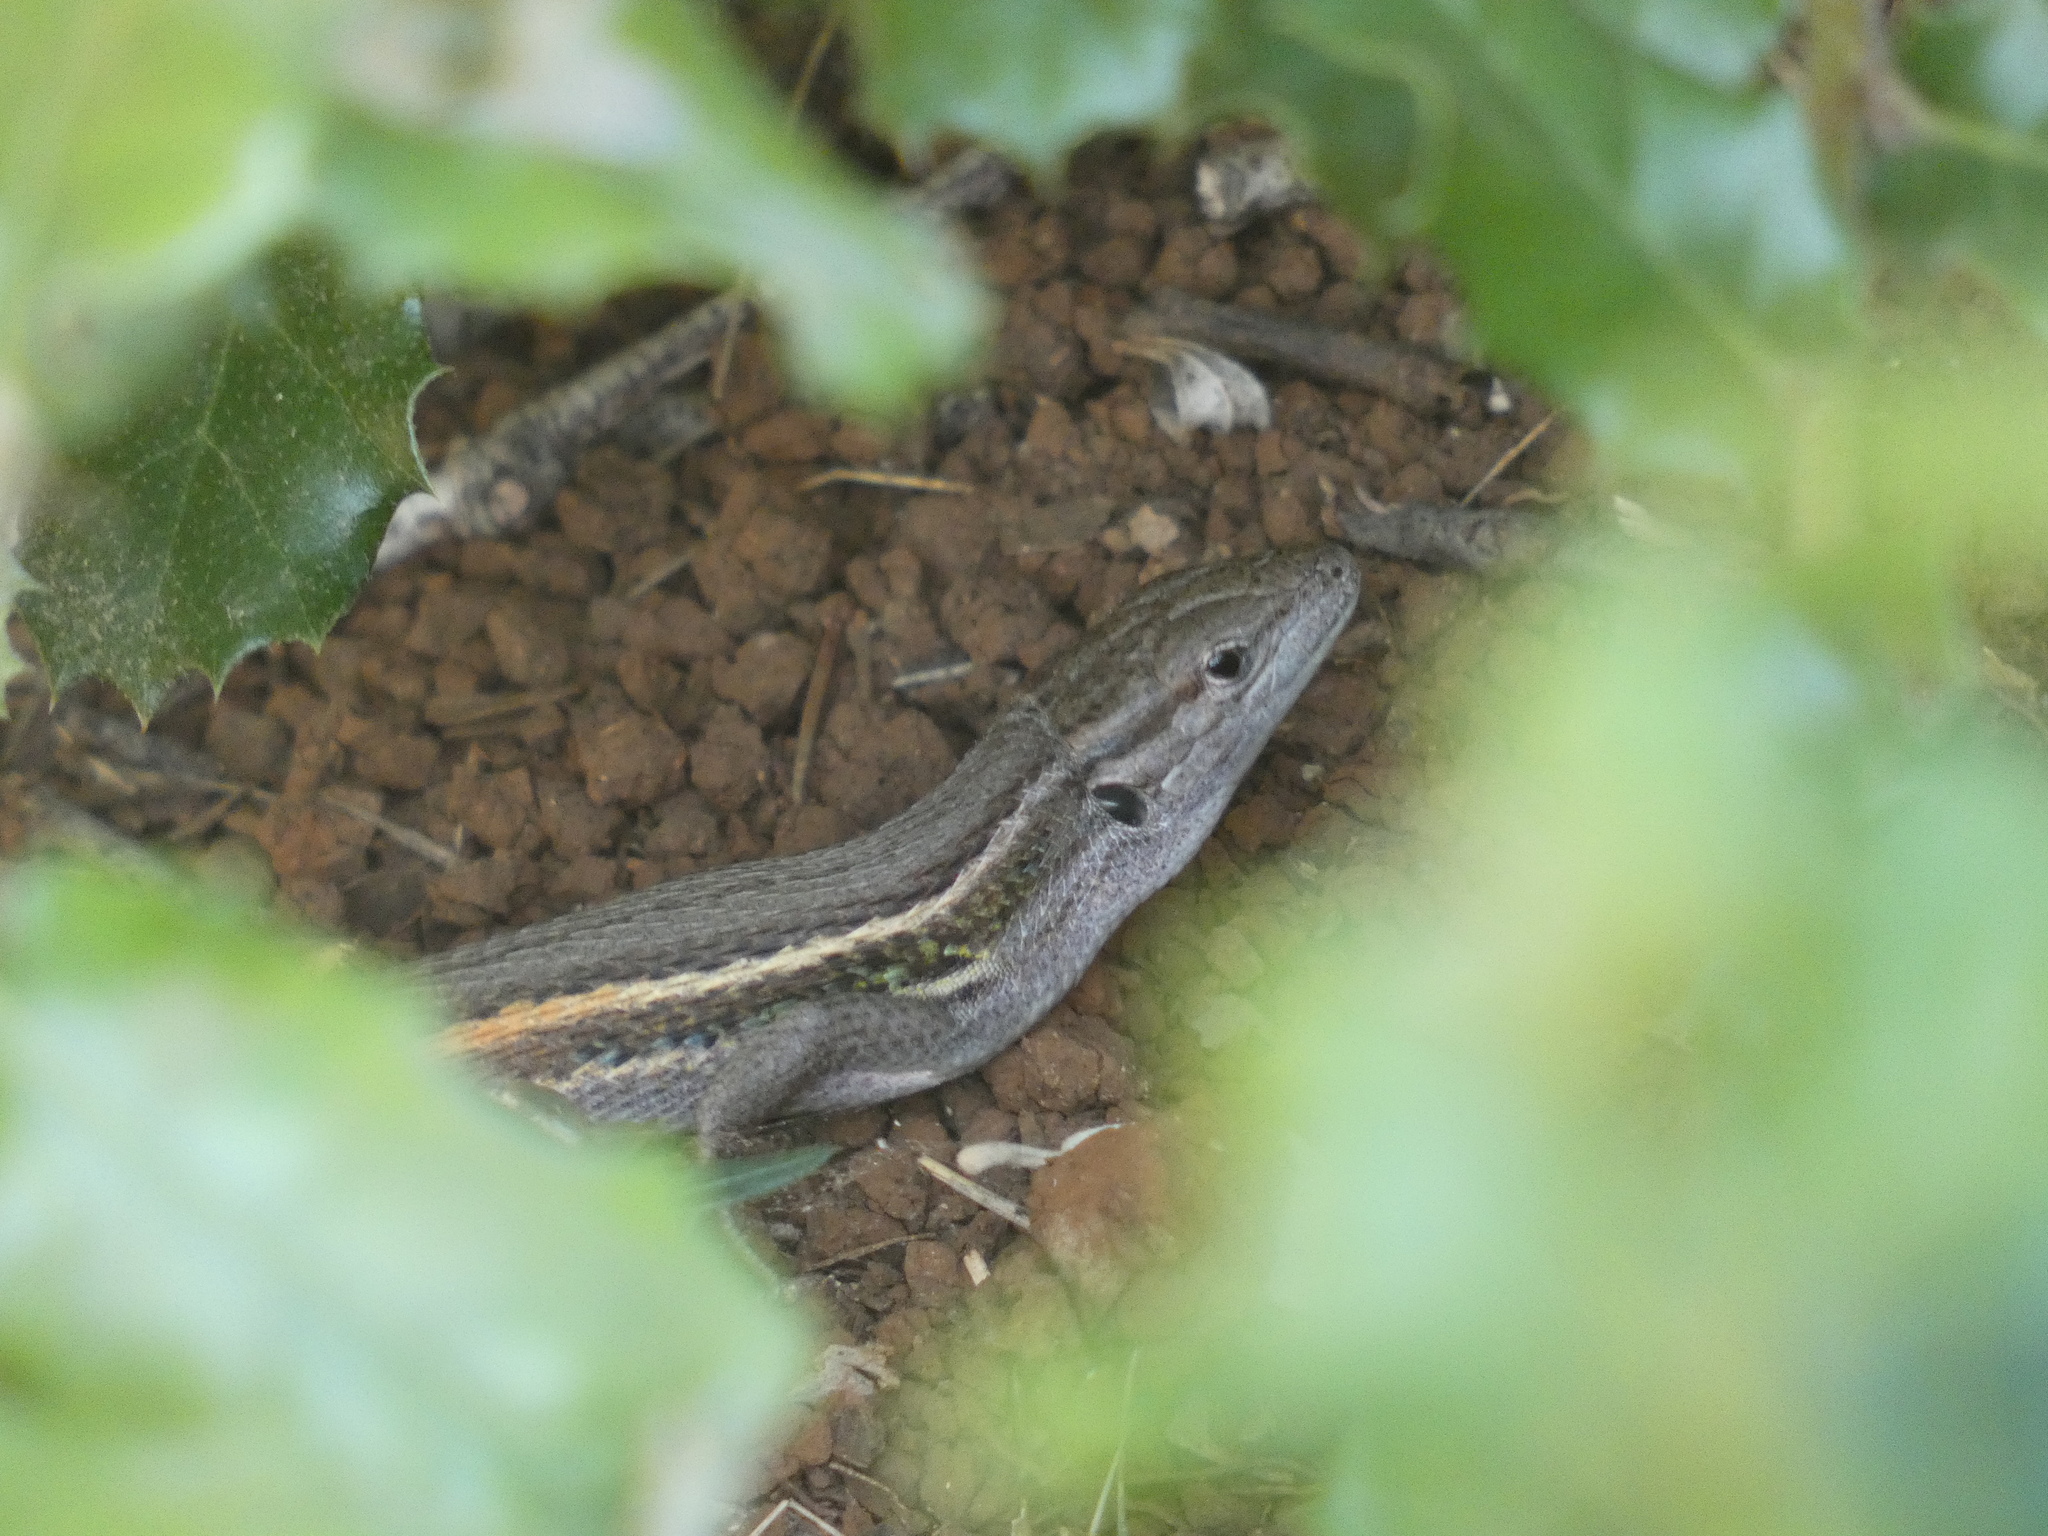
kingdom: Animalia
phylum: Chordata
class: Squamata
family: Lacertidae
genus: Psammodromus
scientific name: Psammodromus algirus
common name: Algerian psammodromus
